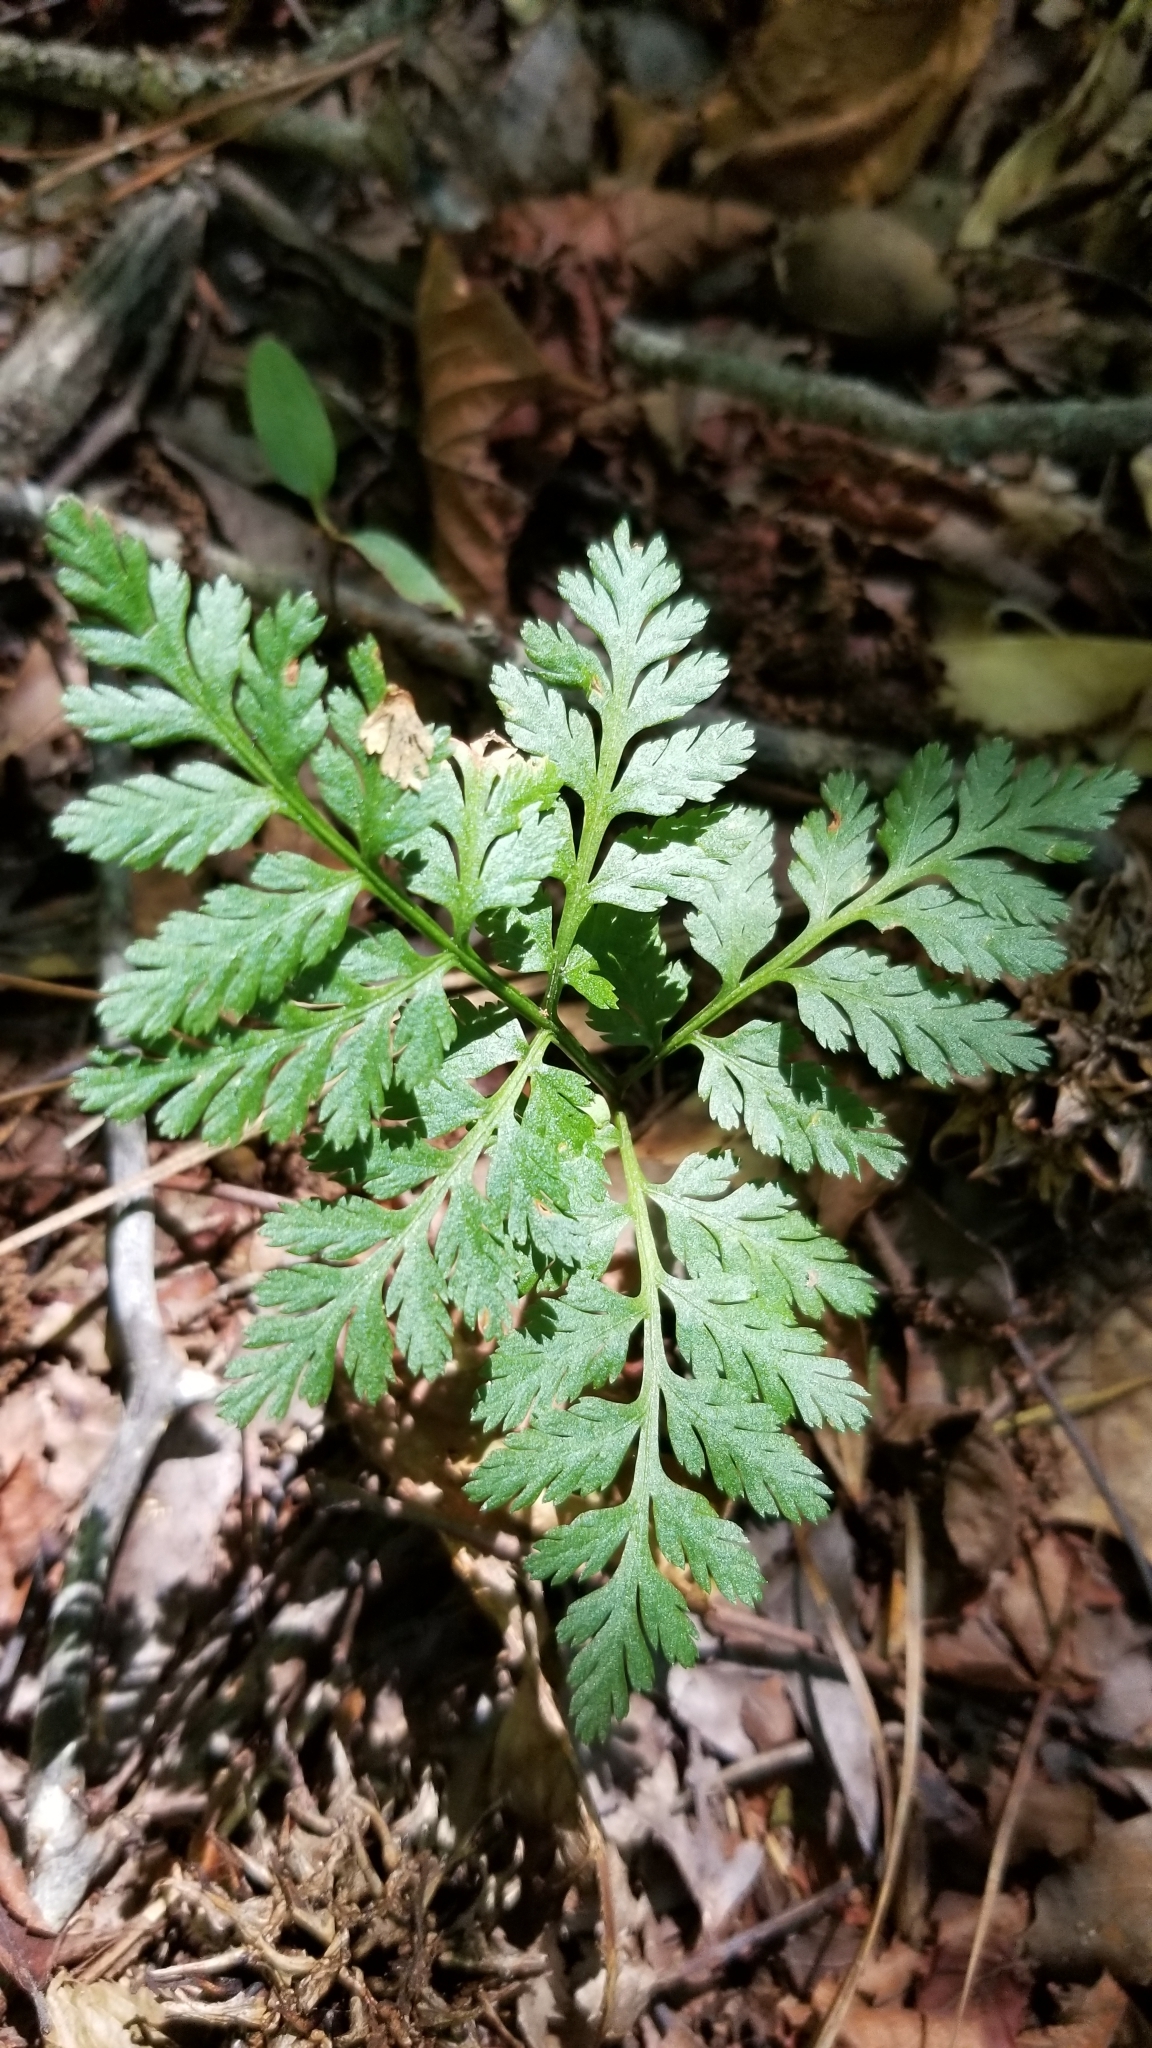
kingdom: Plantae
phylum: Tracheophyta
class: Polypodiopsida
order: Ophioglossales
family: Ophioglossaceae
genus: Botrypus
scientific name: Botrypus virginianus
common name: Common grapefern
